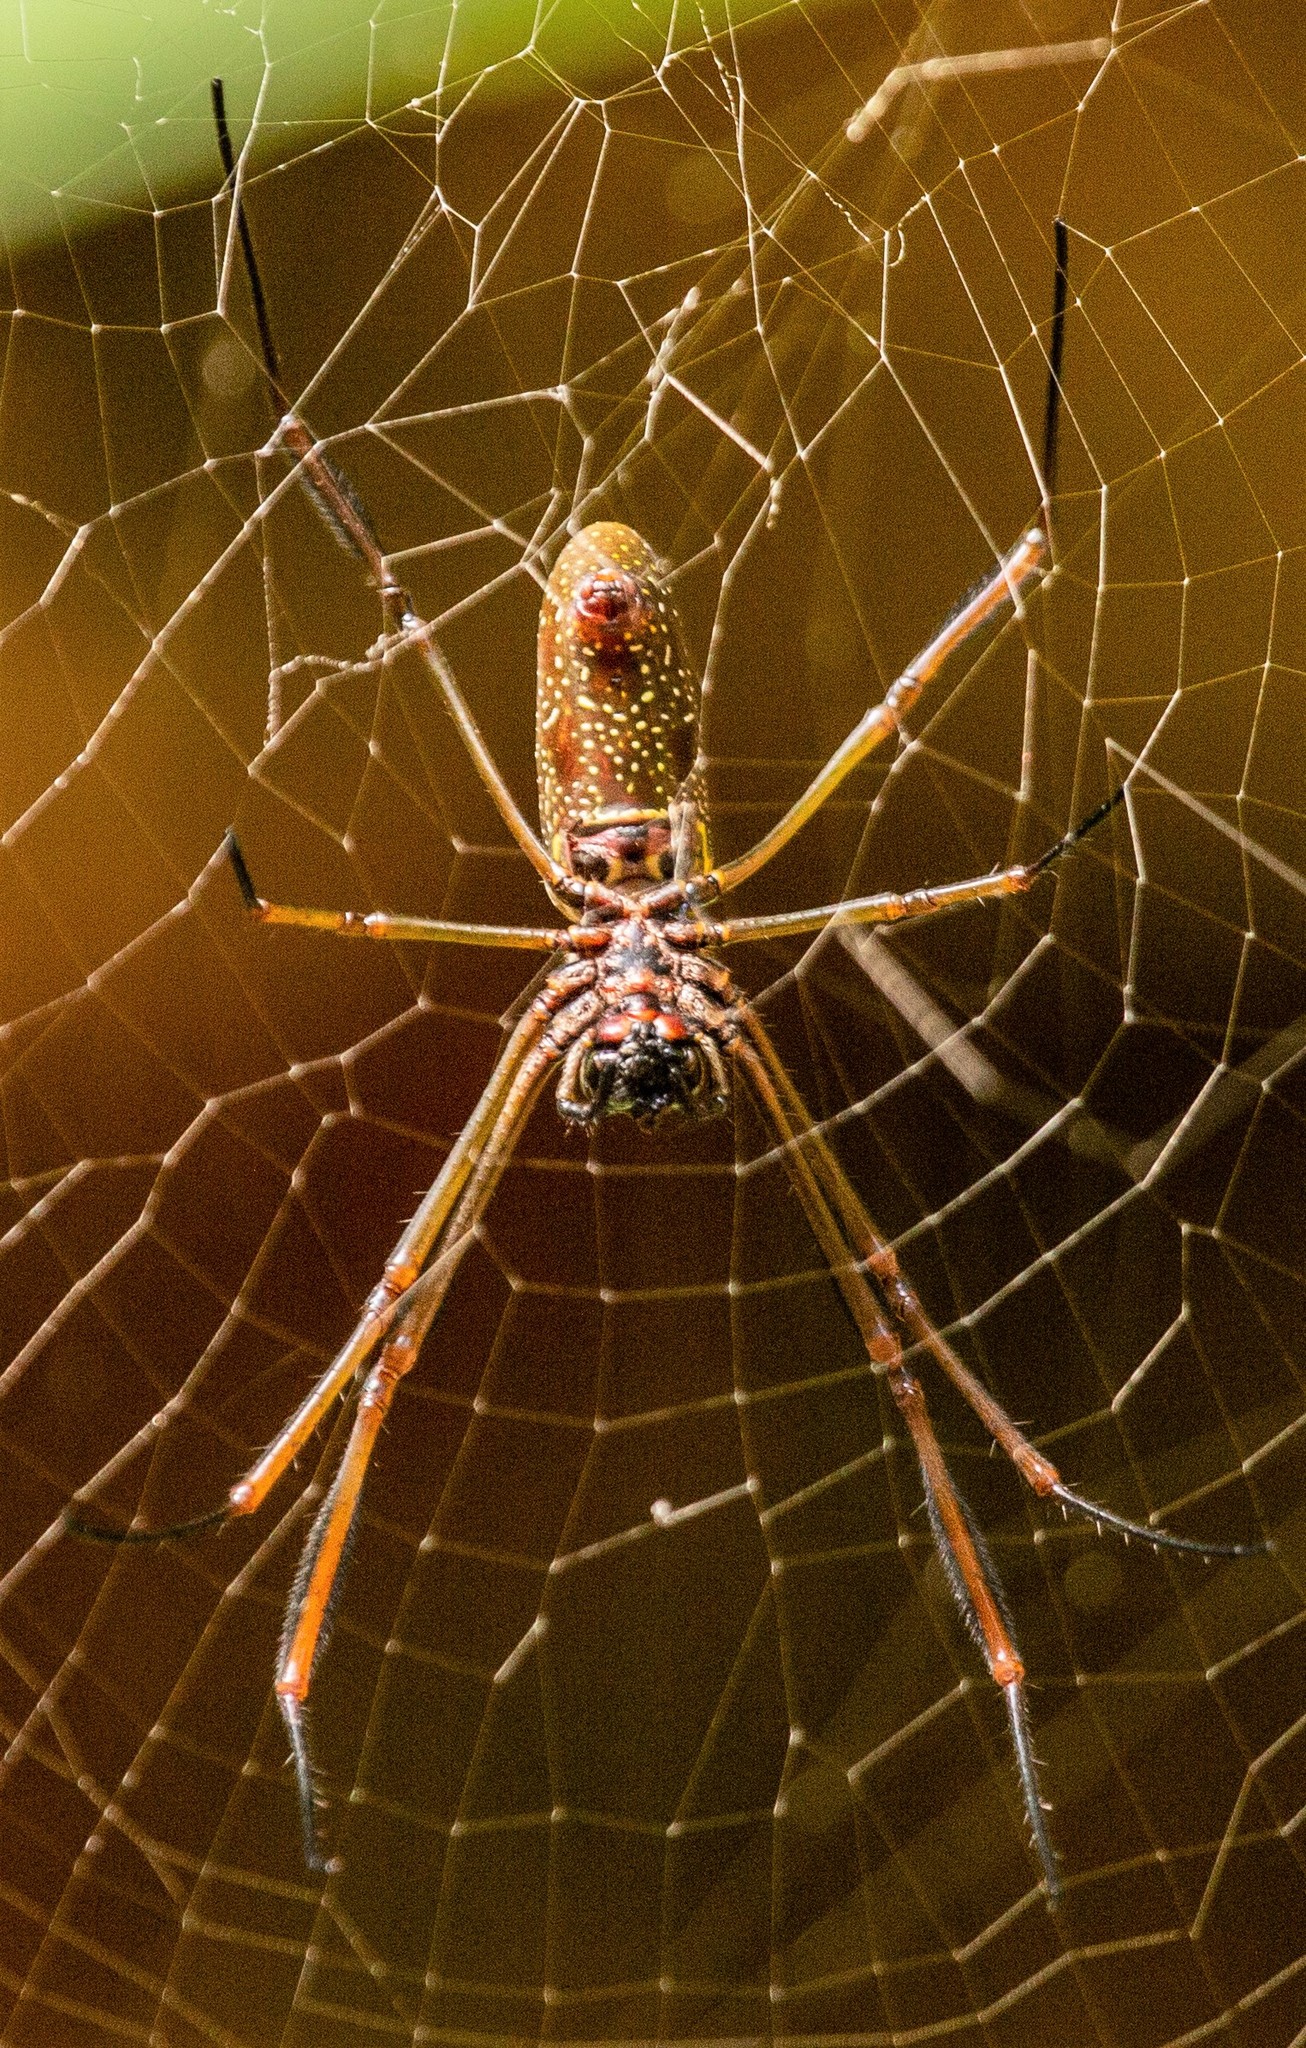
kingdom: Animalia
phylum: Arthropoda
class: Arachnida
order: Araneae
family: Araneidae
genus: Nephila
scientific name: Nephila cornuta
